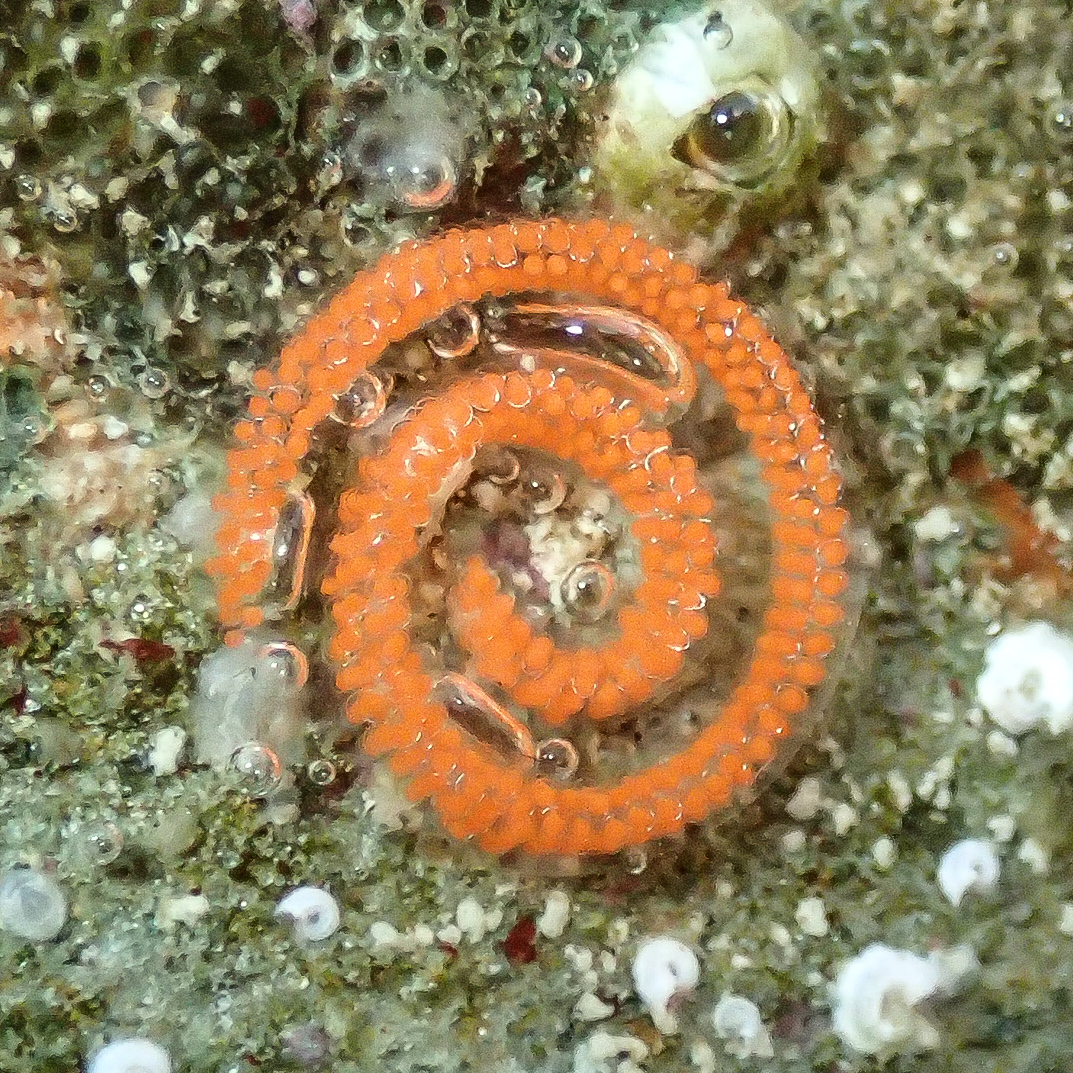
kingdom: Animalia
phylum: Mollusca
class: Gastropoda
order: Nudibranchia
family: Discodorididae
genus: Rostanga
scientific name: Rostanga arbutus
